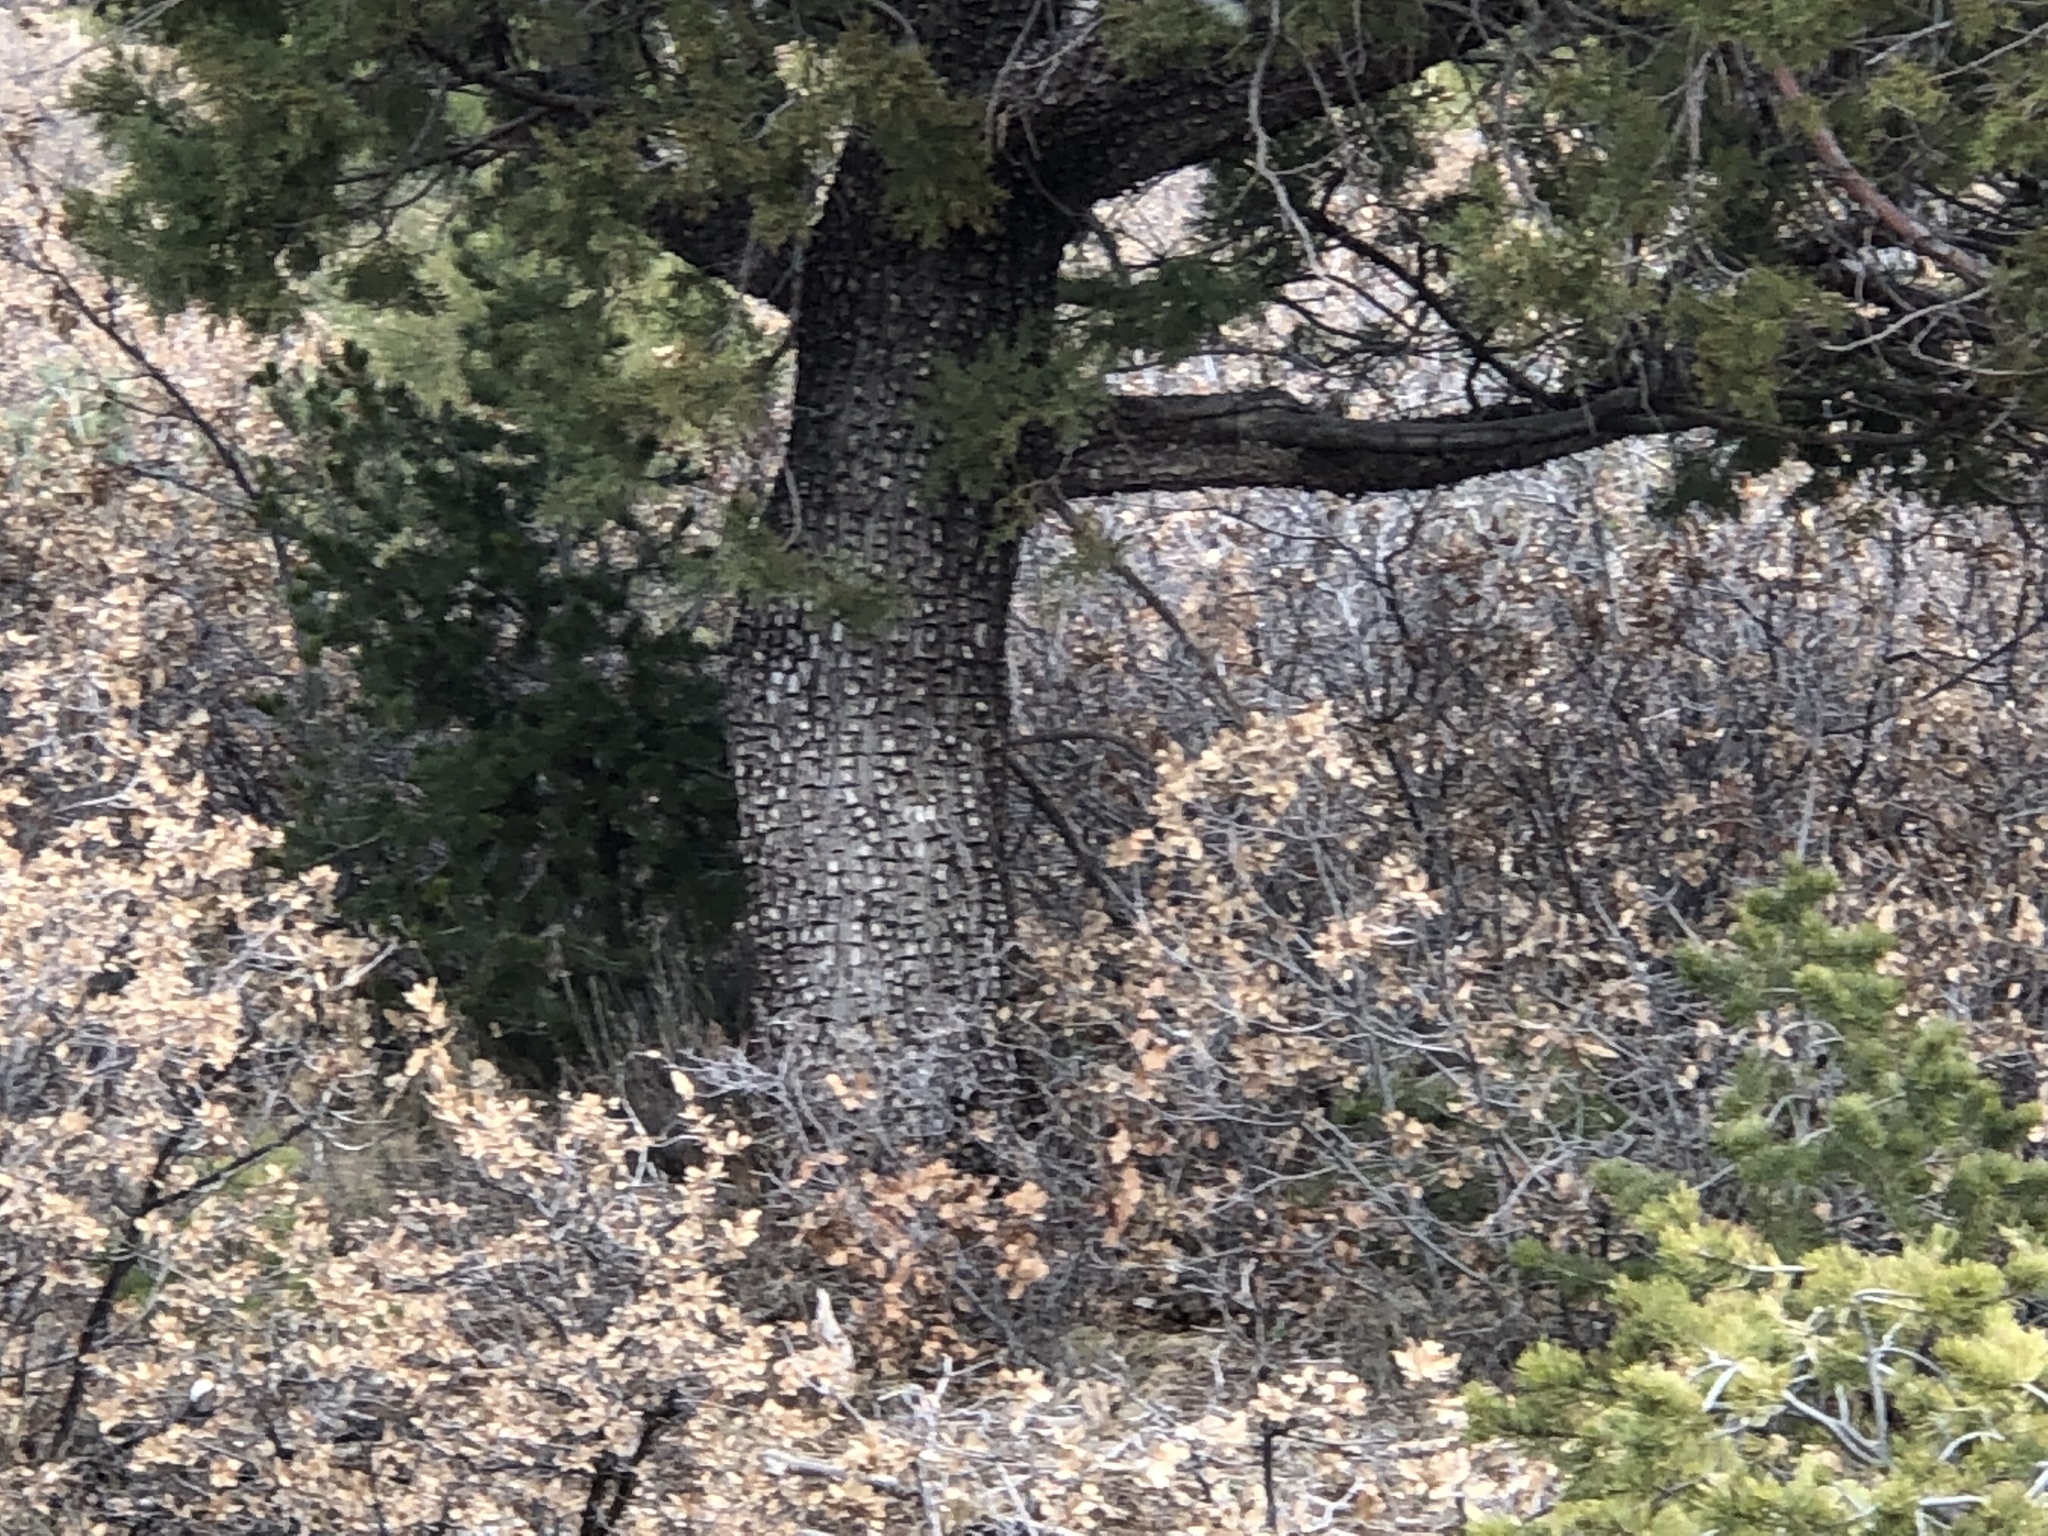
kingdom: Plantae
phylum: Tracheophyta
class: Pinopsida
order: Pinales
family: Cupressaceae
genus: Juniperus
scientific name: Juniperus deppeana
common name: Alligator juniper
